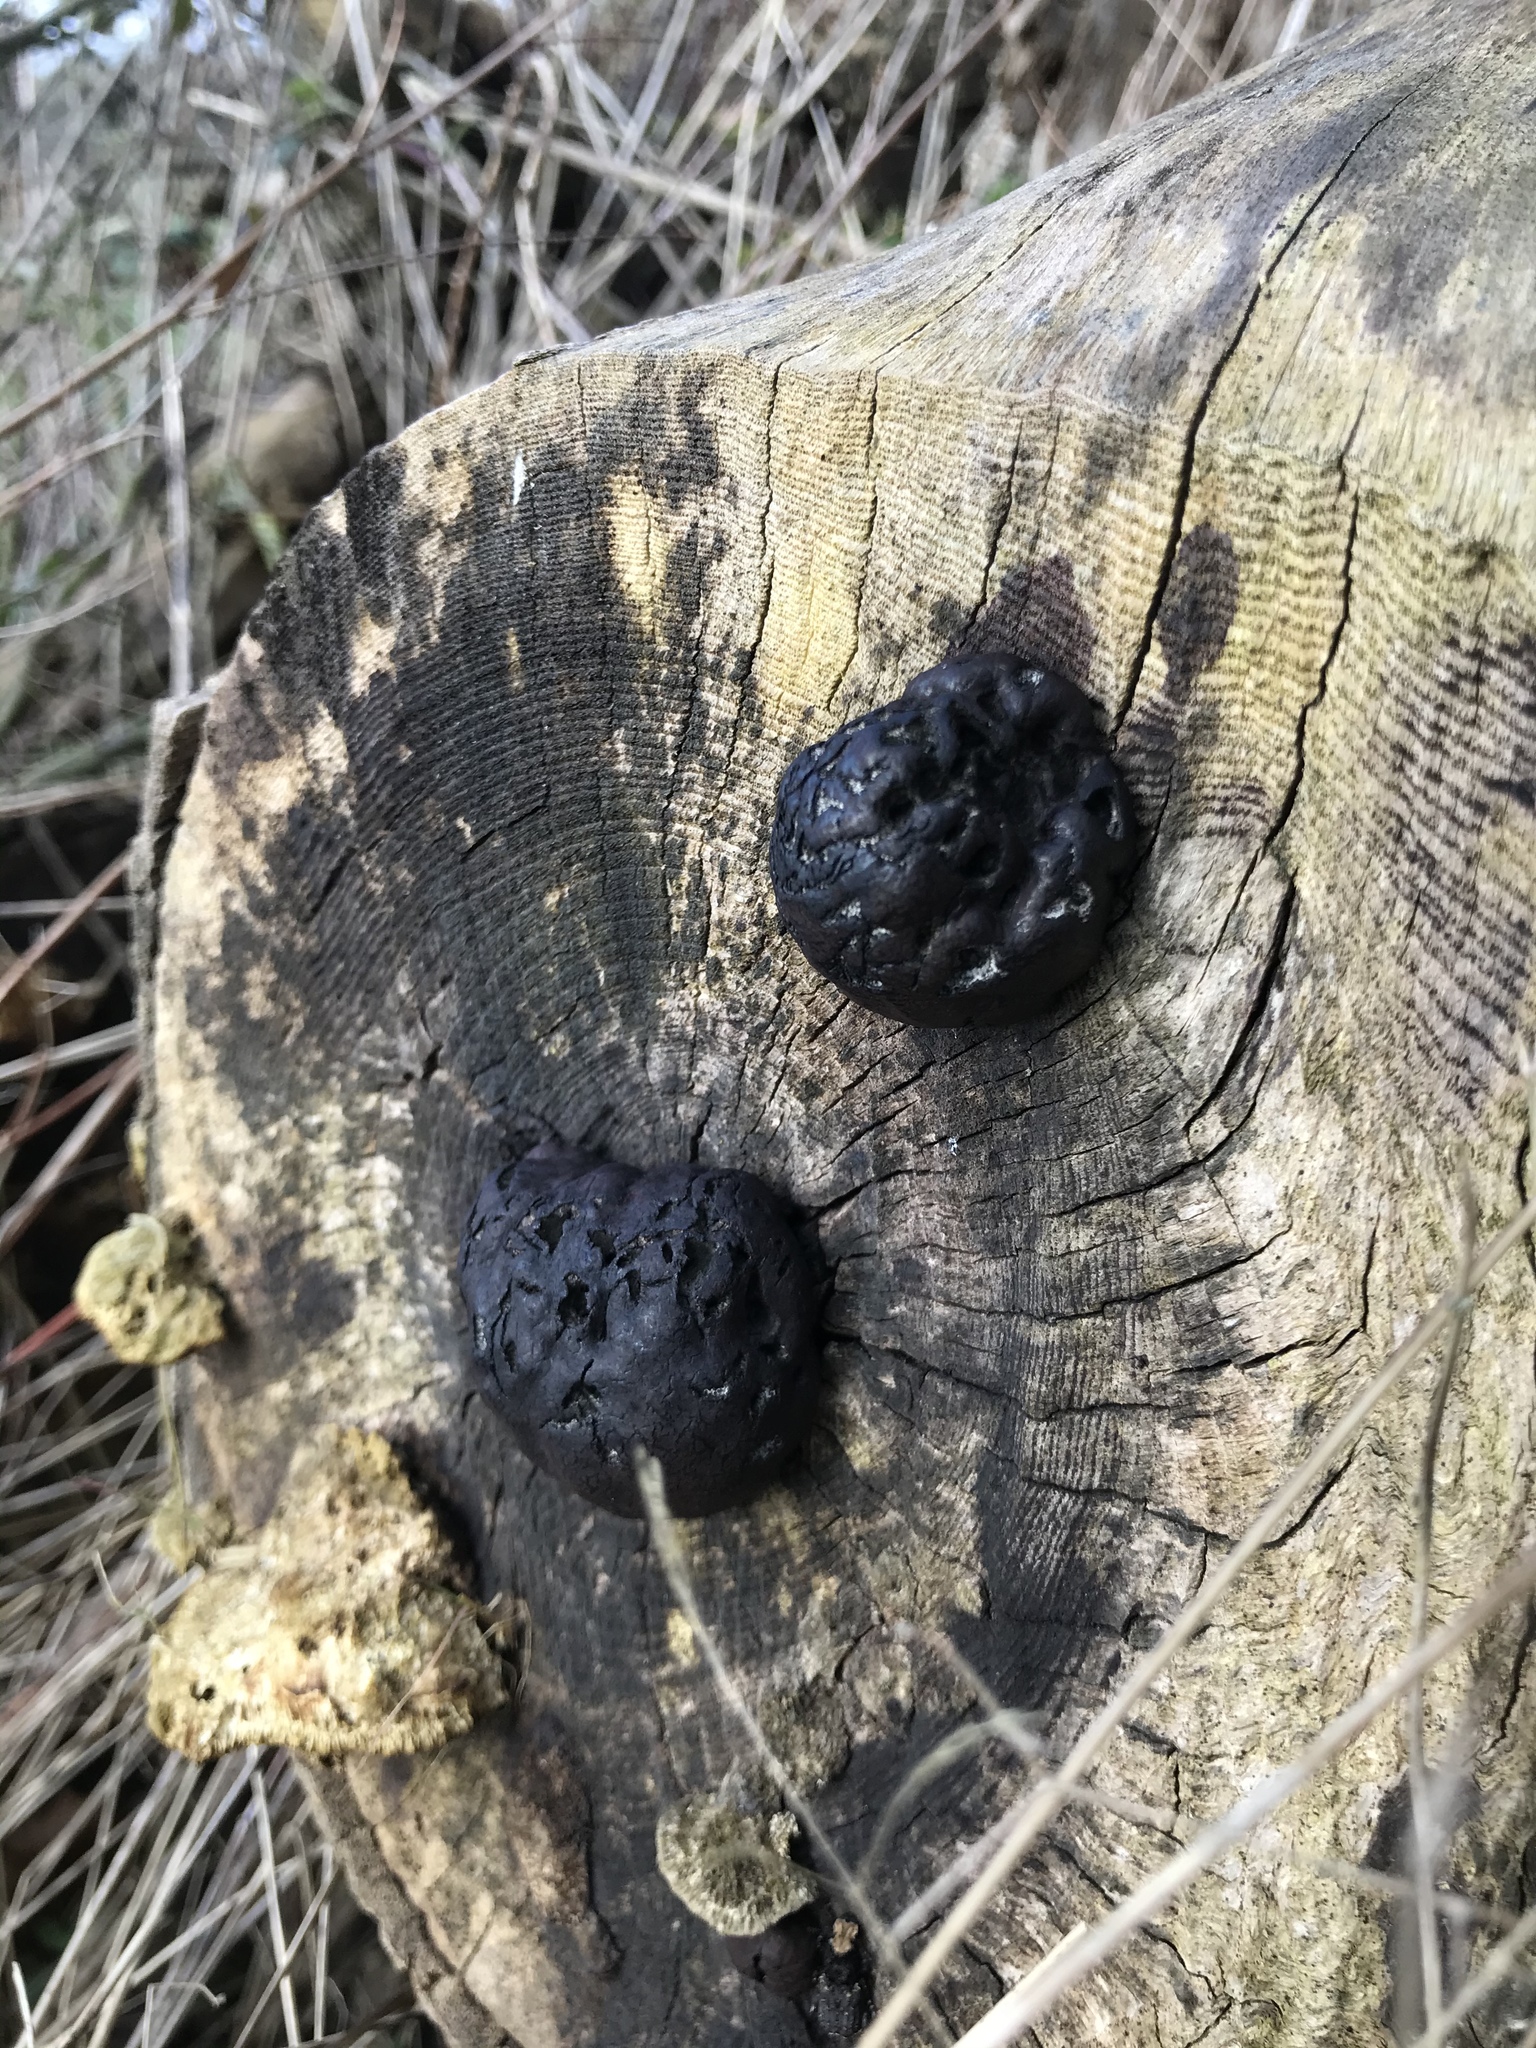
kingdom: Fungi
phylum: Ascomycota
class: Sordariomycetes
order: Xylariales
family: Hypoxylaceae
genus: Daldinia
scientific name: Daldinia concentrica
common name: Cramp balls
